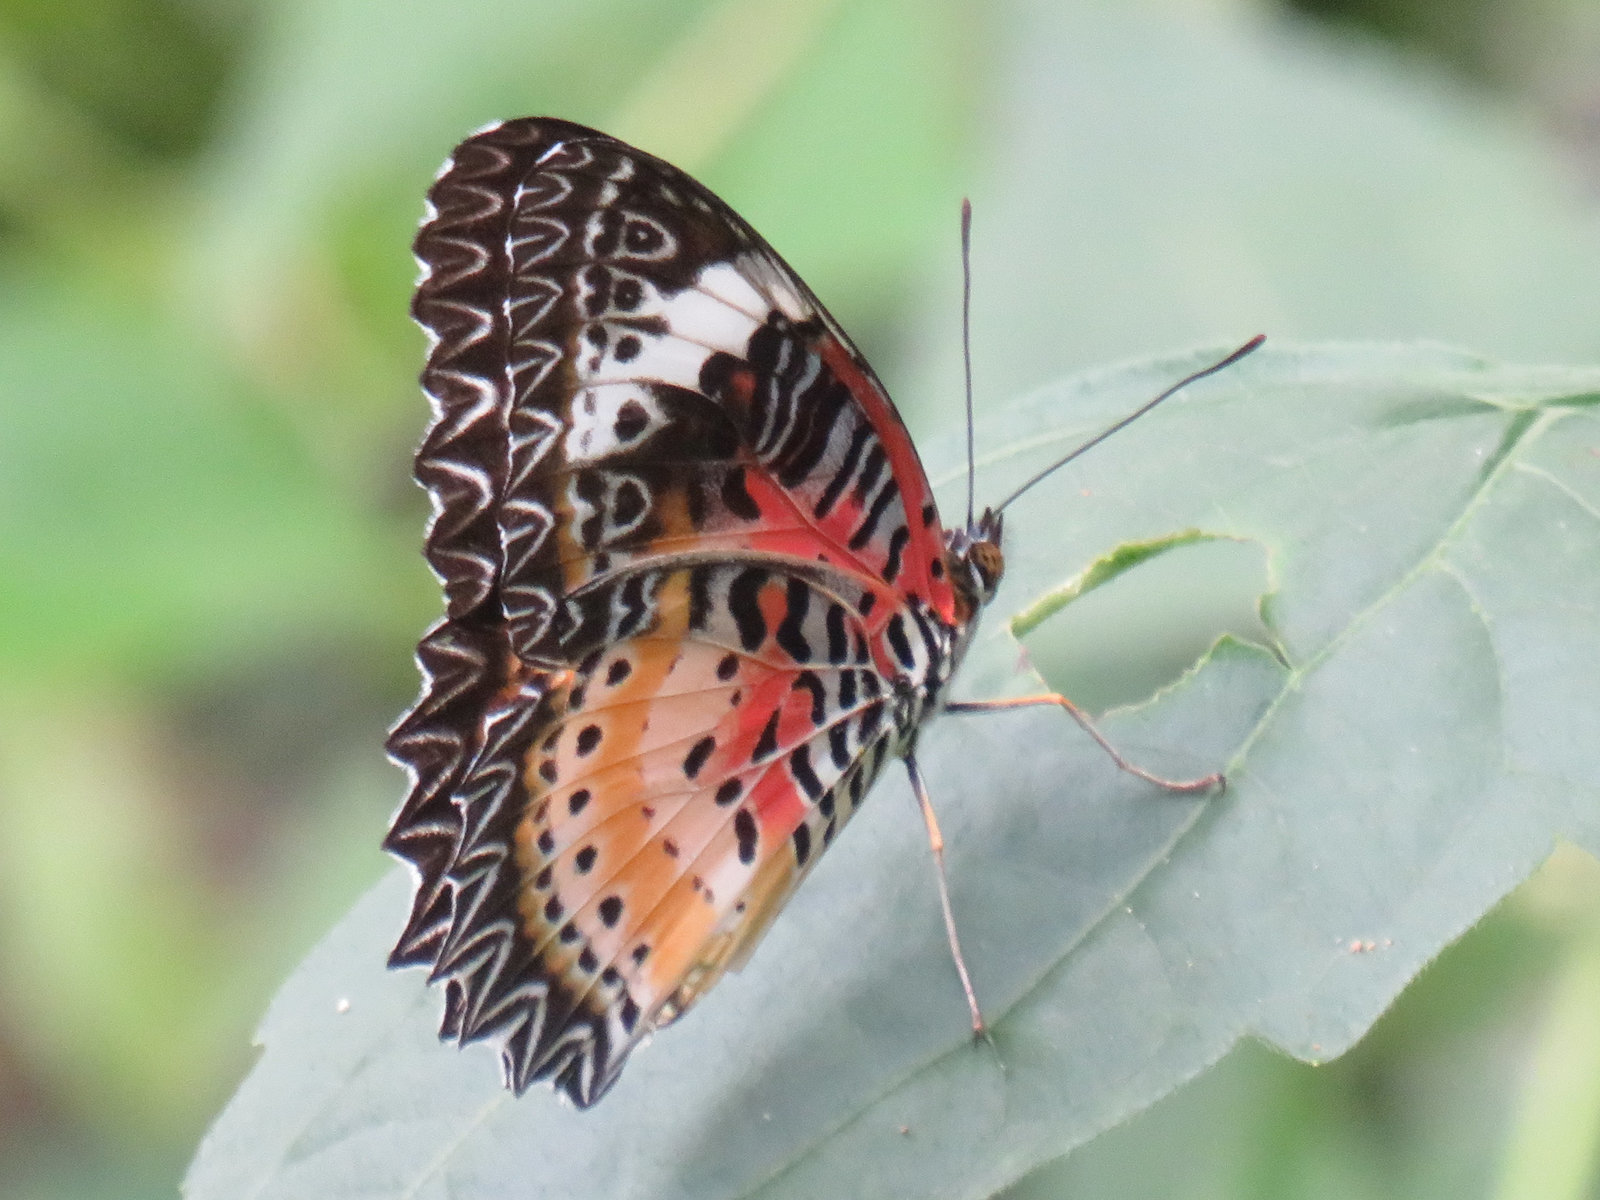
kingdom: Animalia
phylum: Arthropoda
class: Insecta
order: Lepidoptera
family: Nymphalidae
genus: Cethosia
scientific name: Cethosia cyane
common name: Leopard lacewing butterfly
